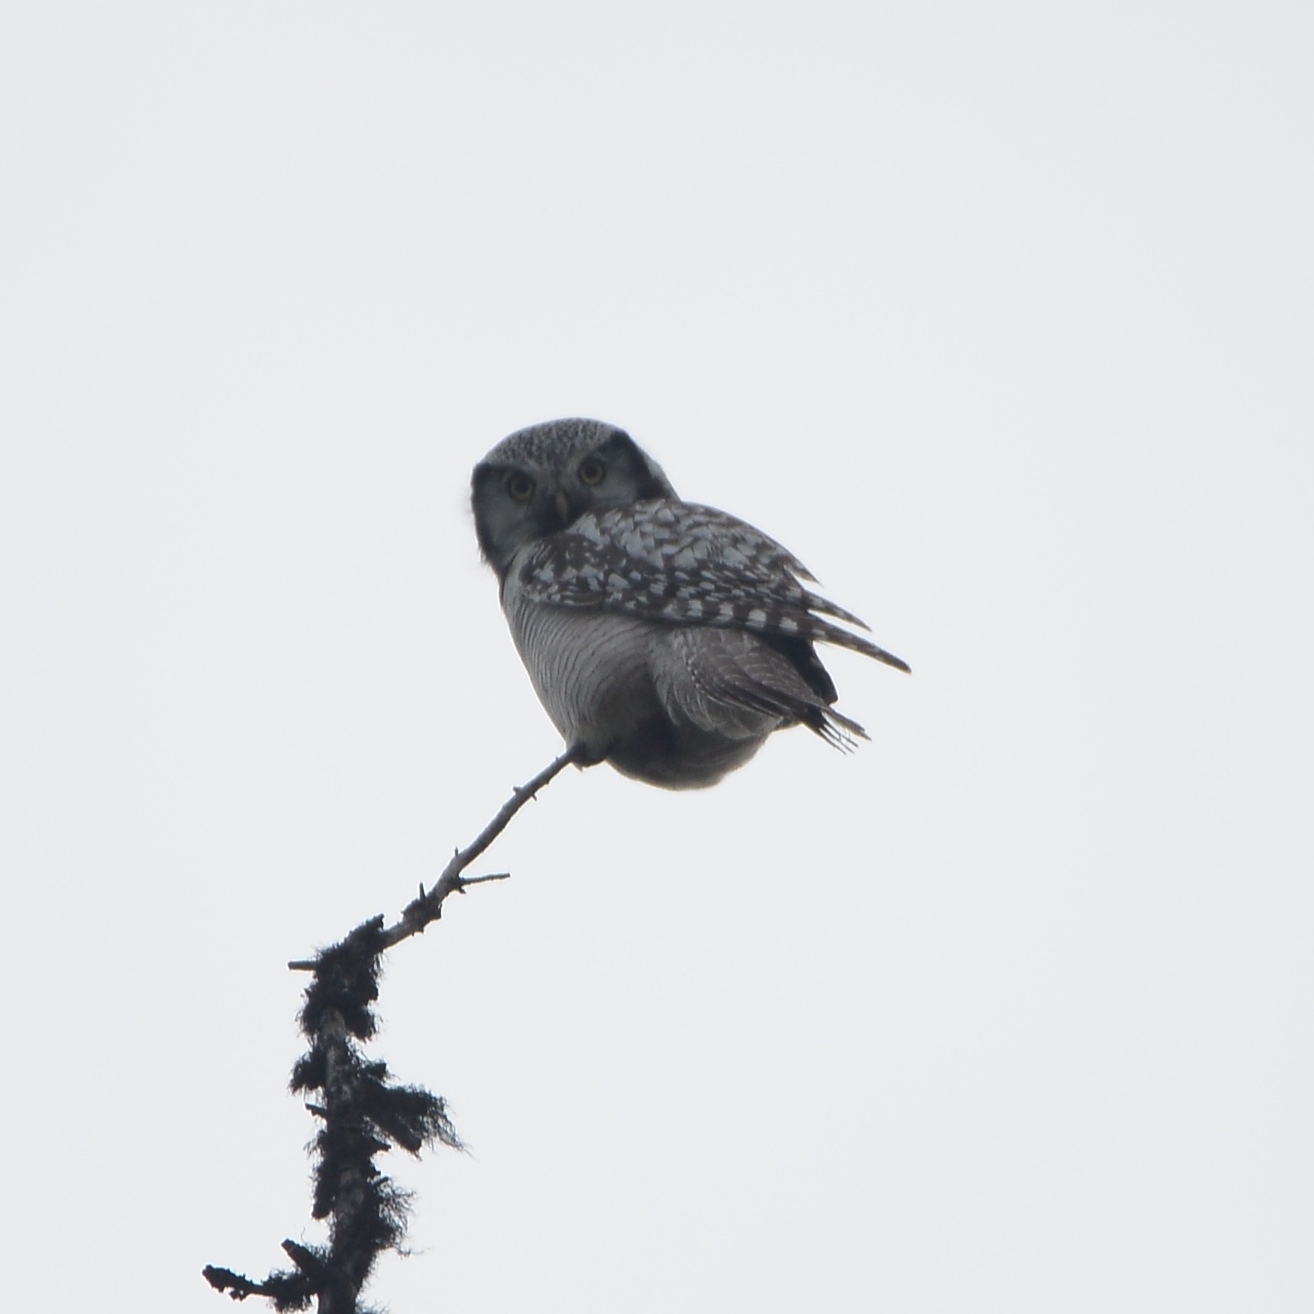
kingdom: Animalia
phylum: Chordata
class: Aves
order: Strigiformes
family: Strigidae
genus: Surnia
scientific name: Surnia ulula
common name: Northern hawk-owl
